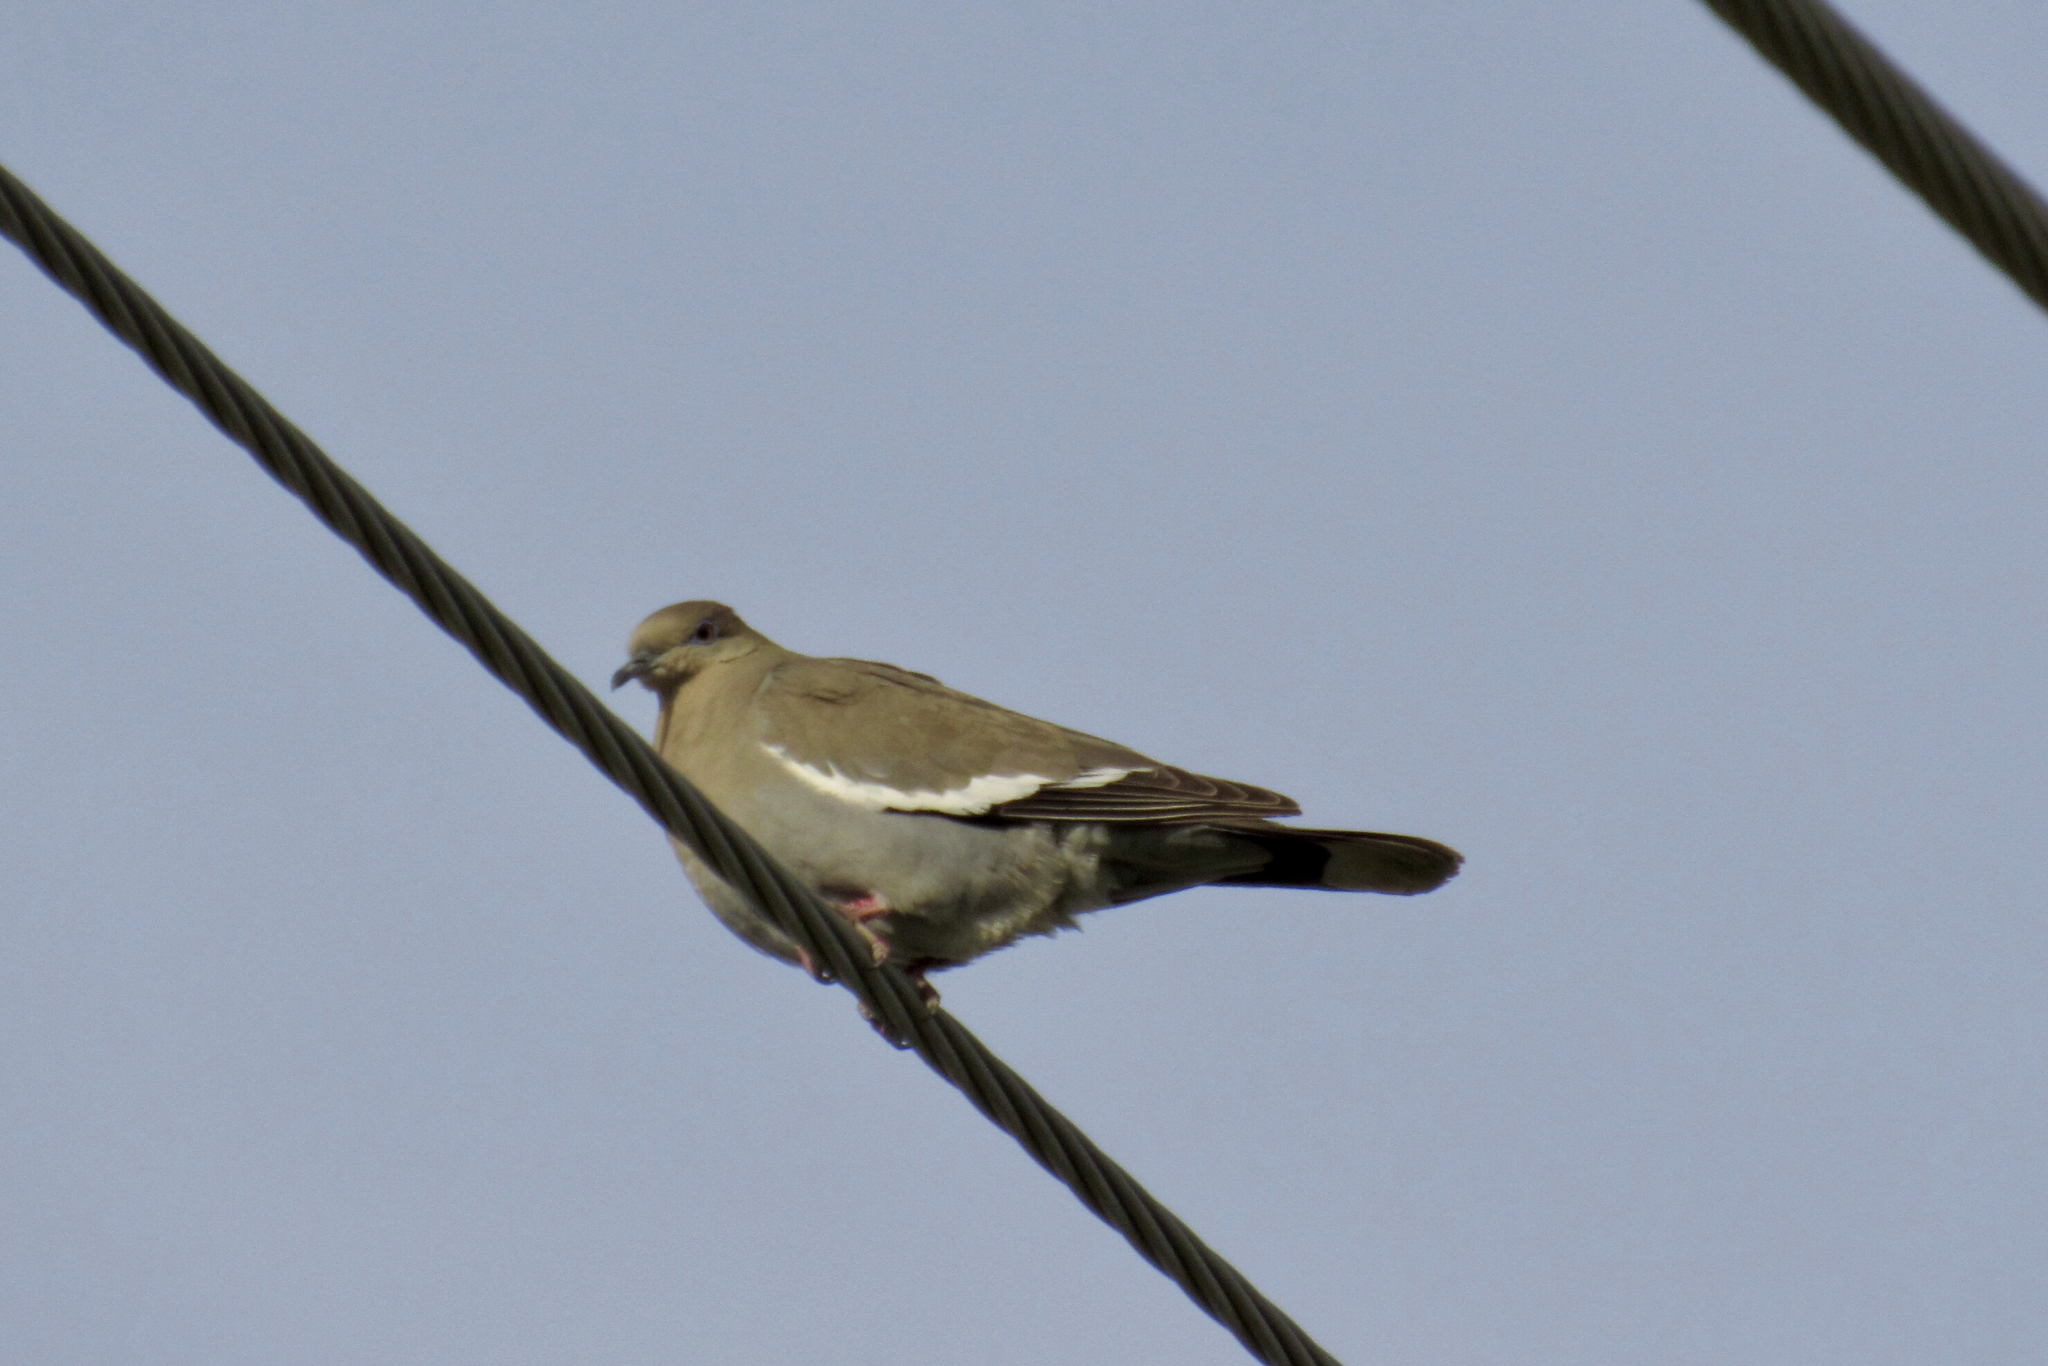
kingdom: Animalia
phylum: Chordata
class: Aves
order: Columbiformes
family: Columbidae
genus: Zenaida
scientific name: Zenaida asiatica
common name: White-winged dove
